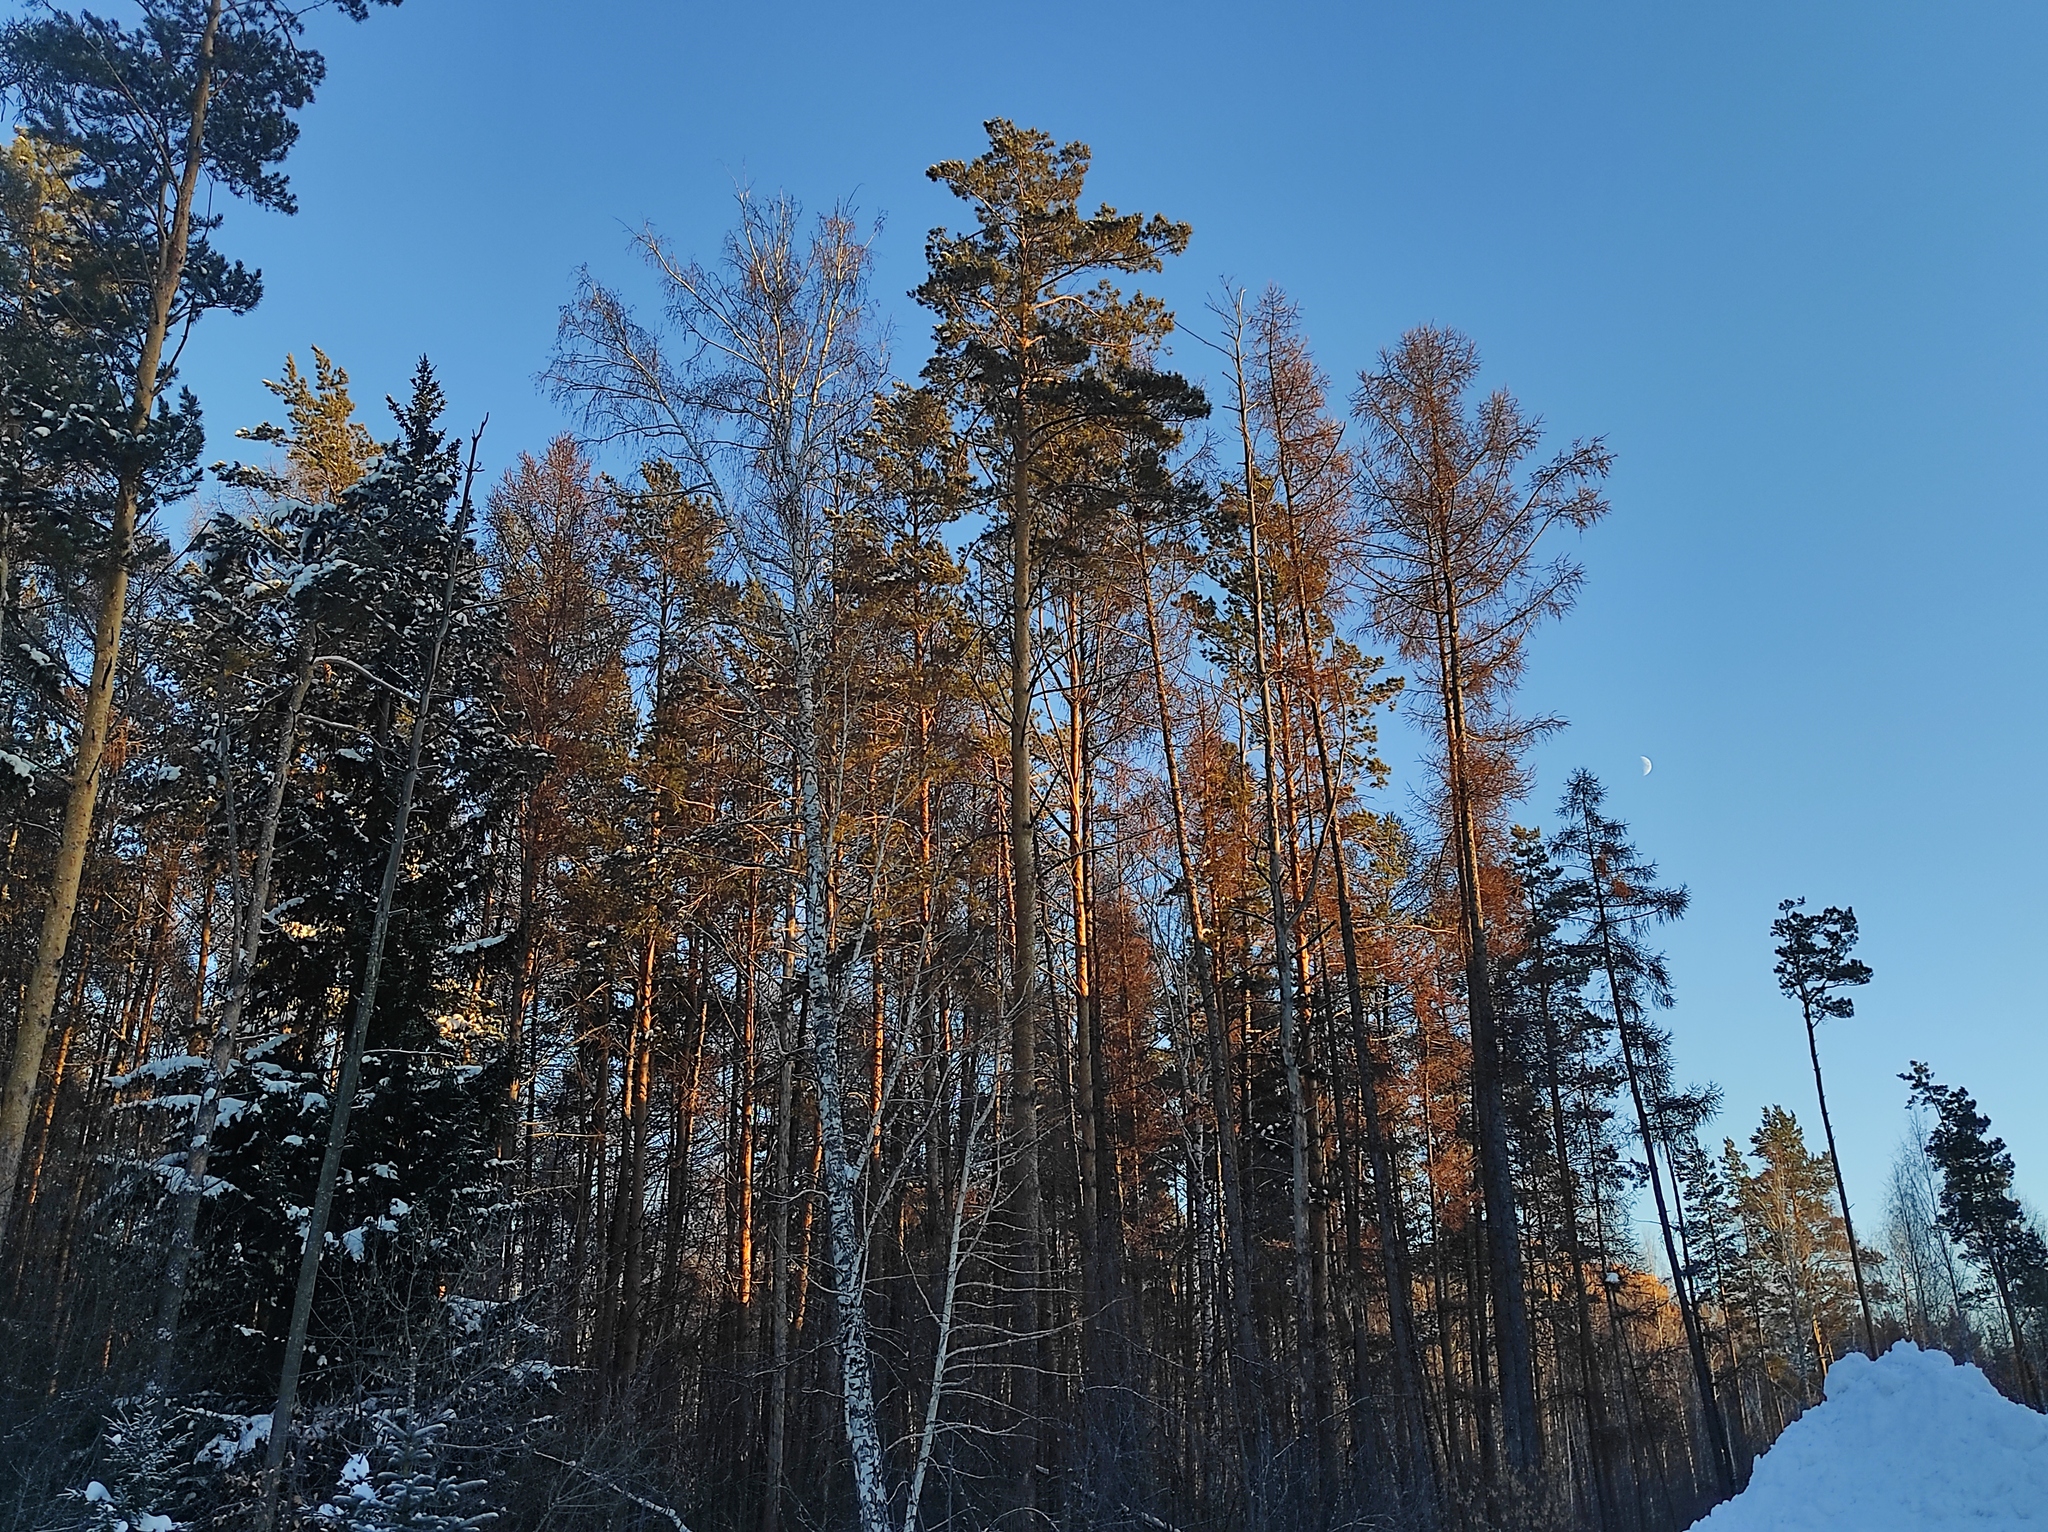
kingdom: Plantae
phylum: Tracheophyta
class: Magnoliopsida
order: Fagales
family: Betulaceae
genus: Betula
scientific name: Betula pendula
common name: Silver birch
